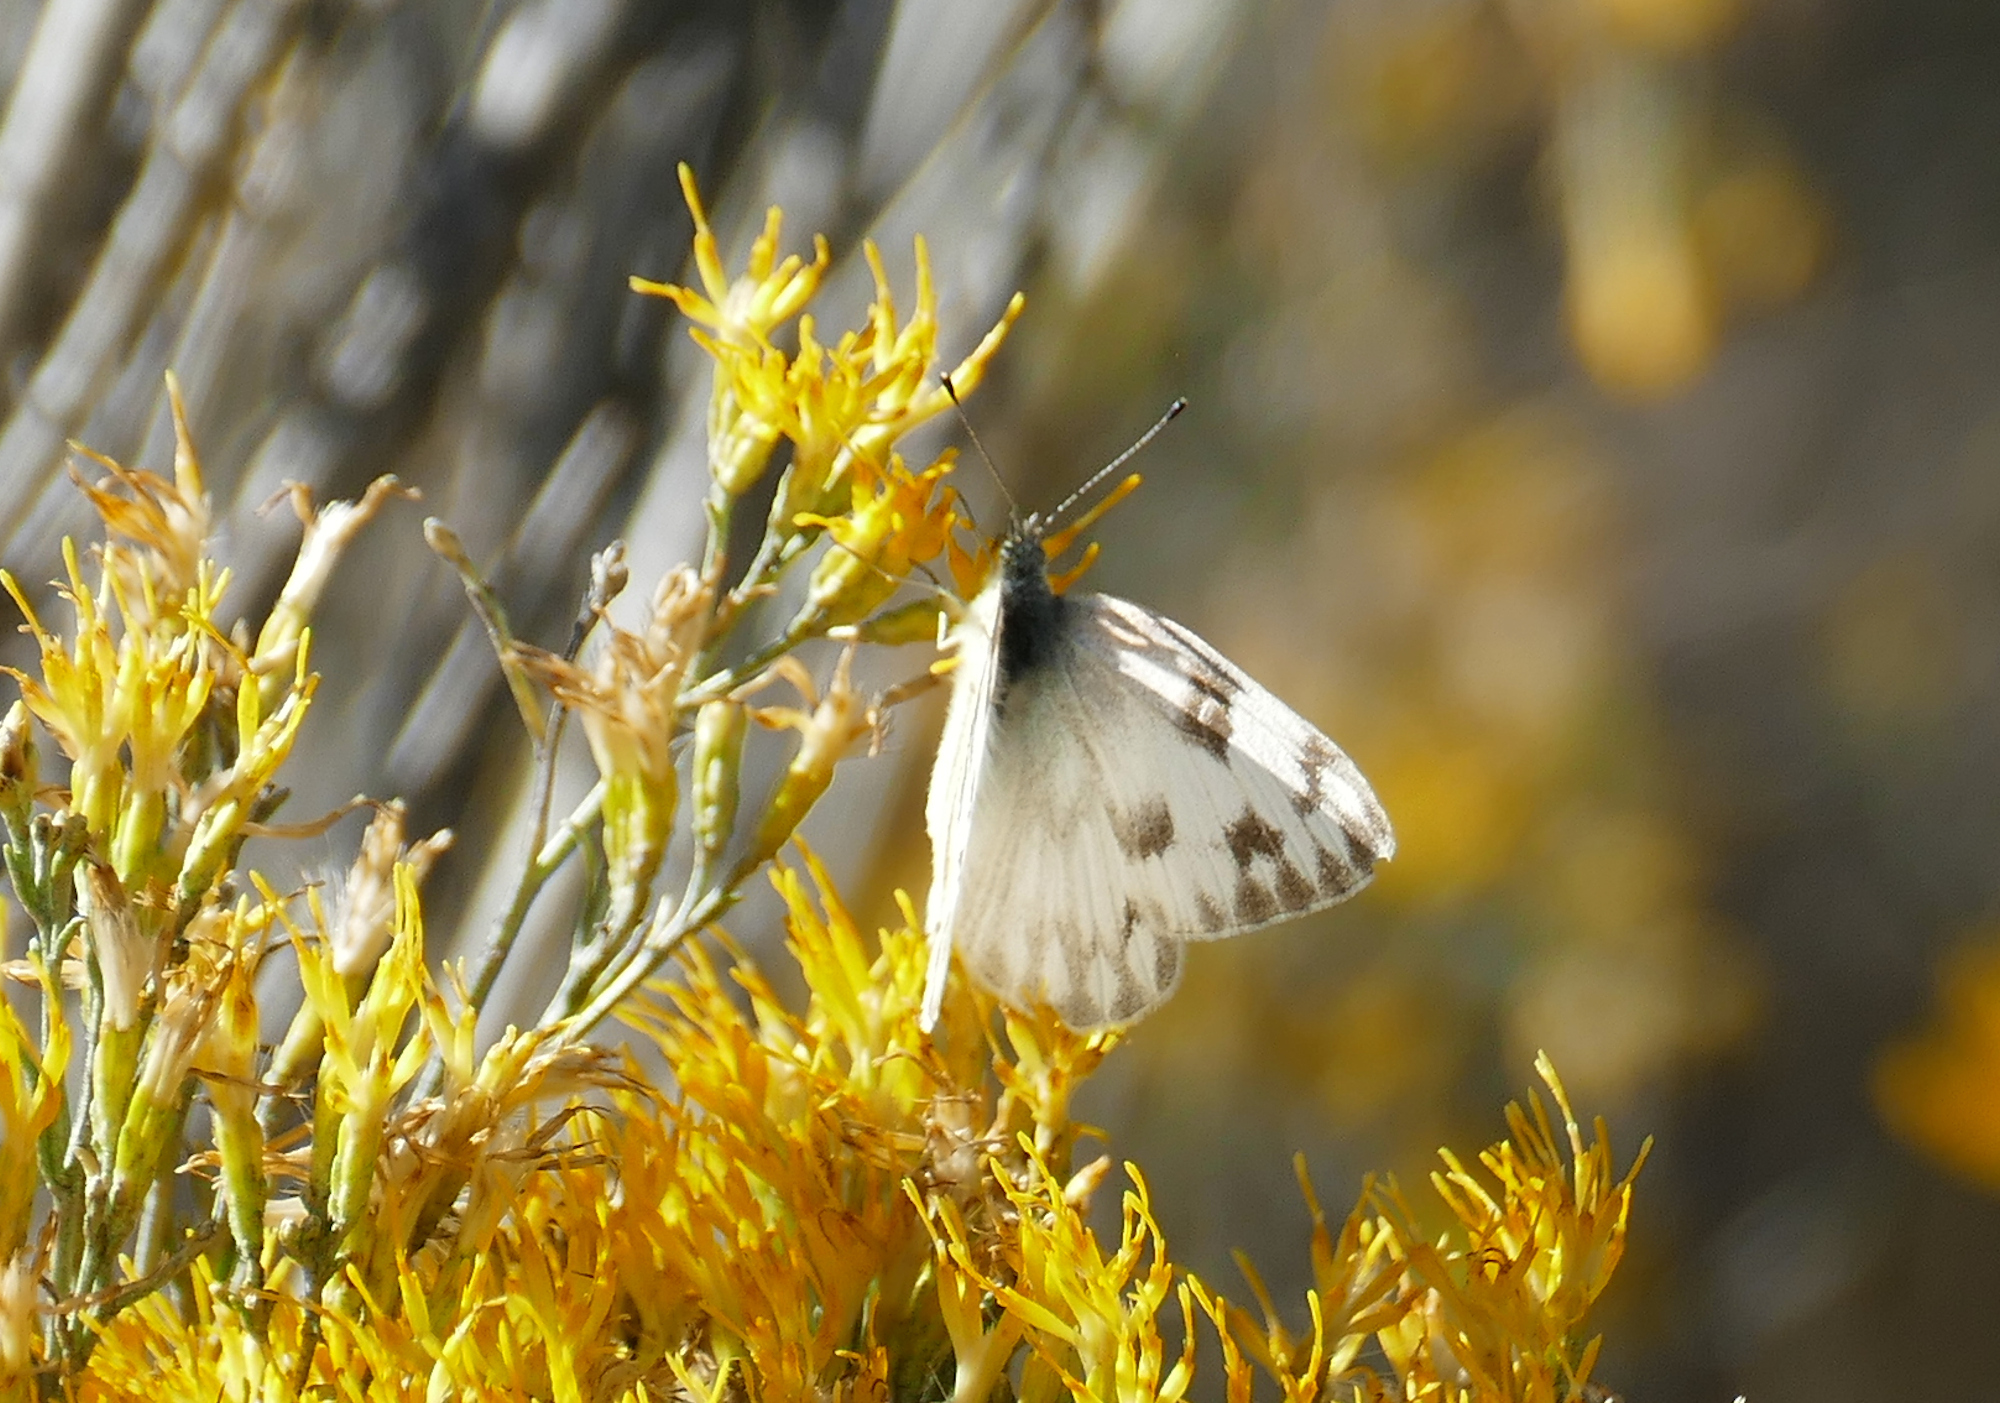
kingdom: Animalia
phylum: Arthropoda
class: Insecta
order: Lepidoptera
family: Pieridae
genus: Pontia
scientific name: Pontia protodice
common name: Checkered white
